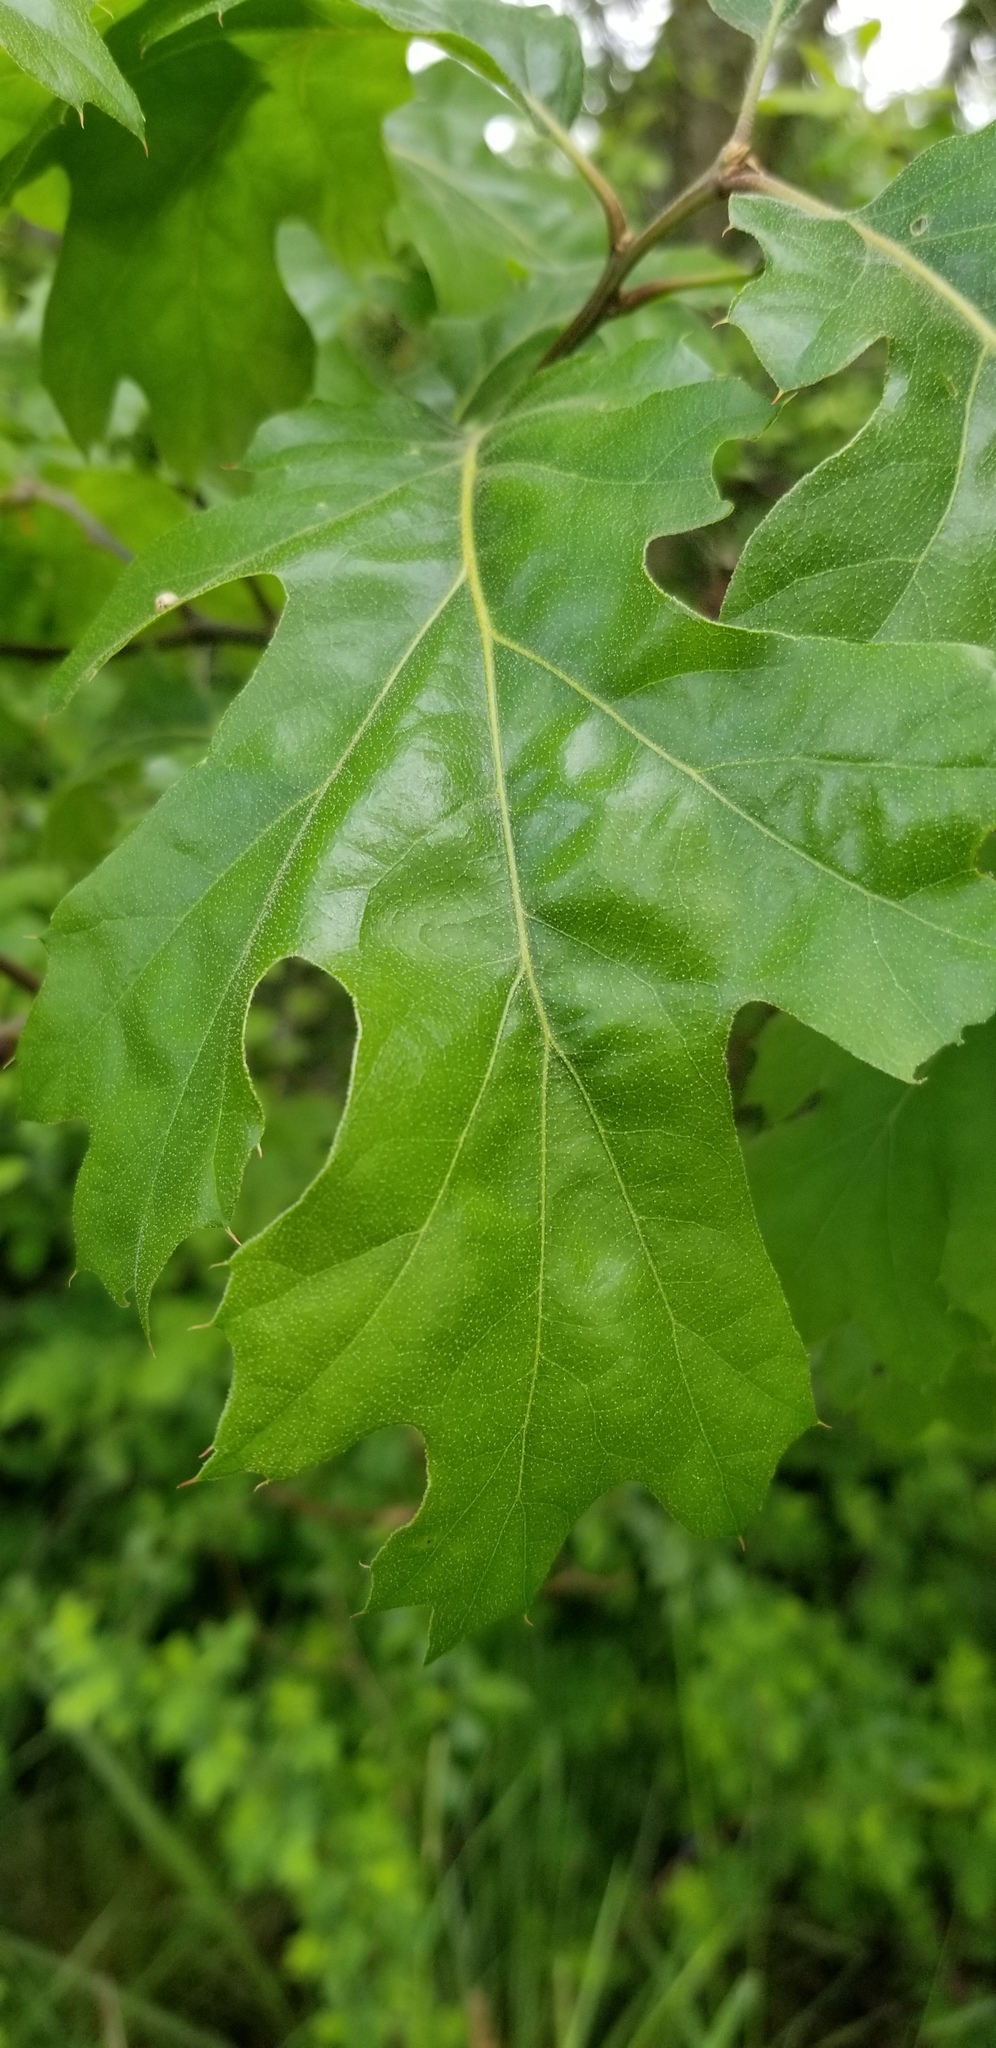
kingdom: Plantae
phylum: Tracheophyta
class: Magnoliopsida
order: Fagales
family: Fagaceae
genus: Quercus
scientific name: Quercus kelloggii
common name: California black oak
